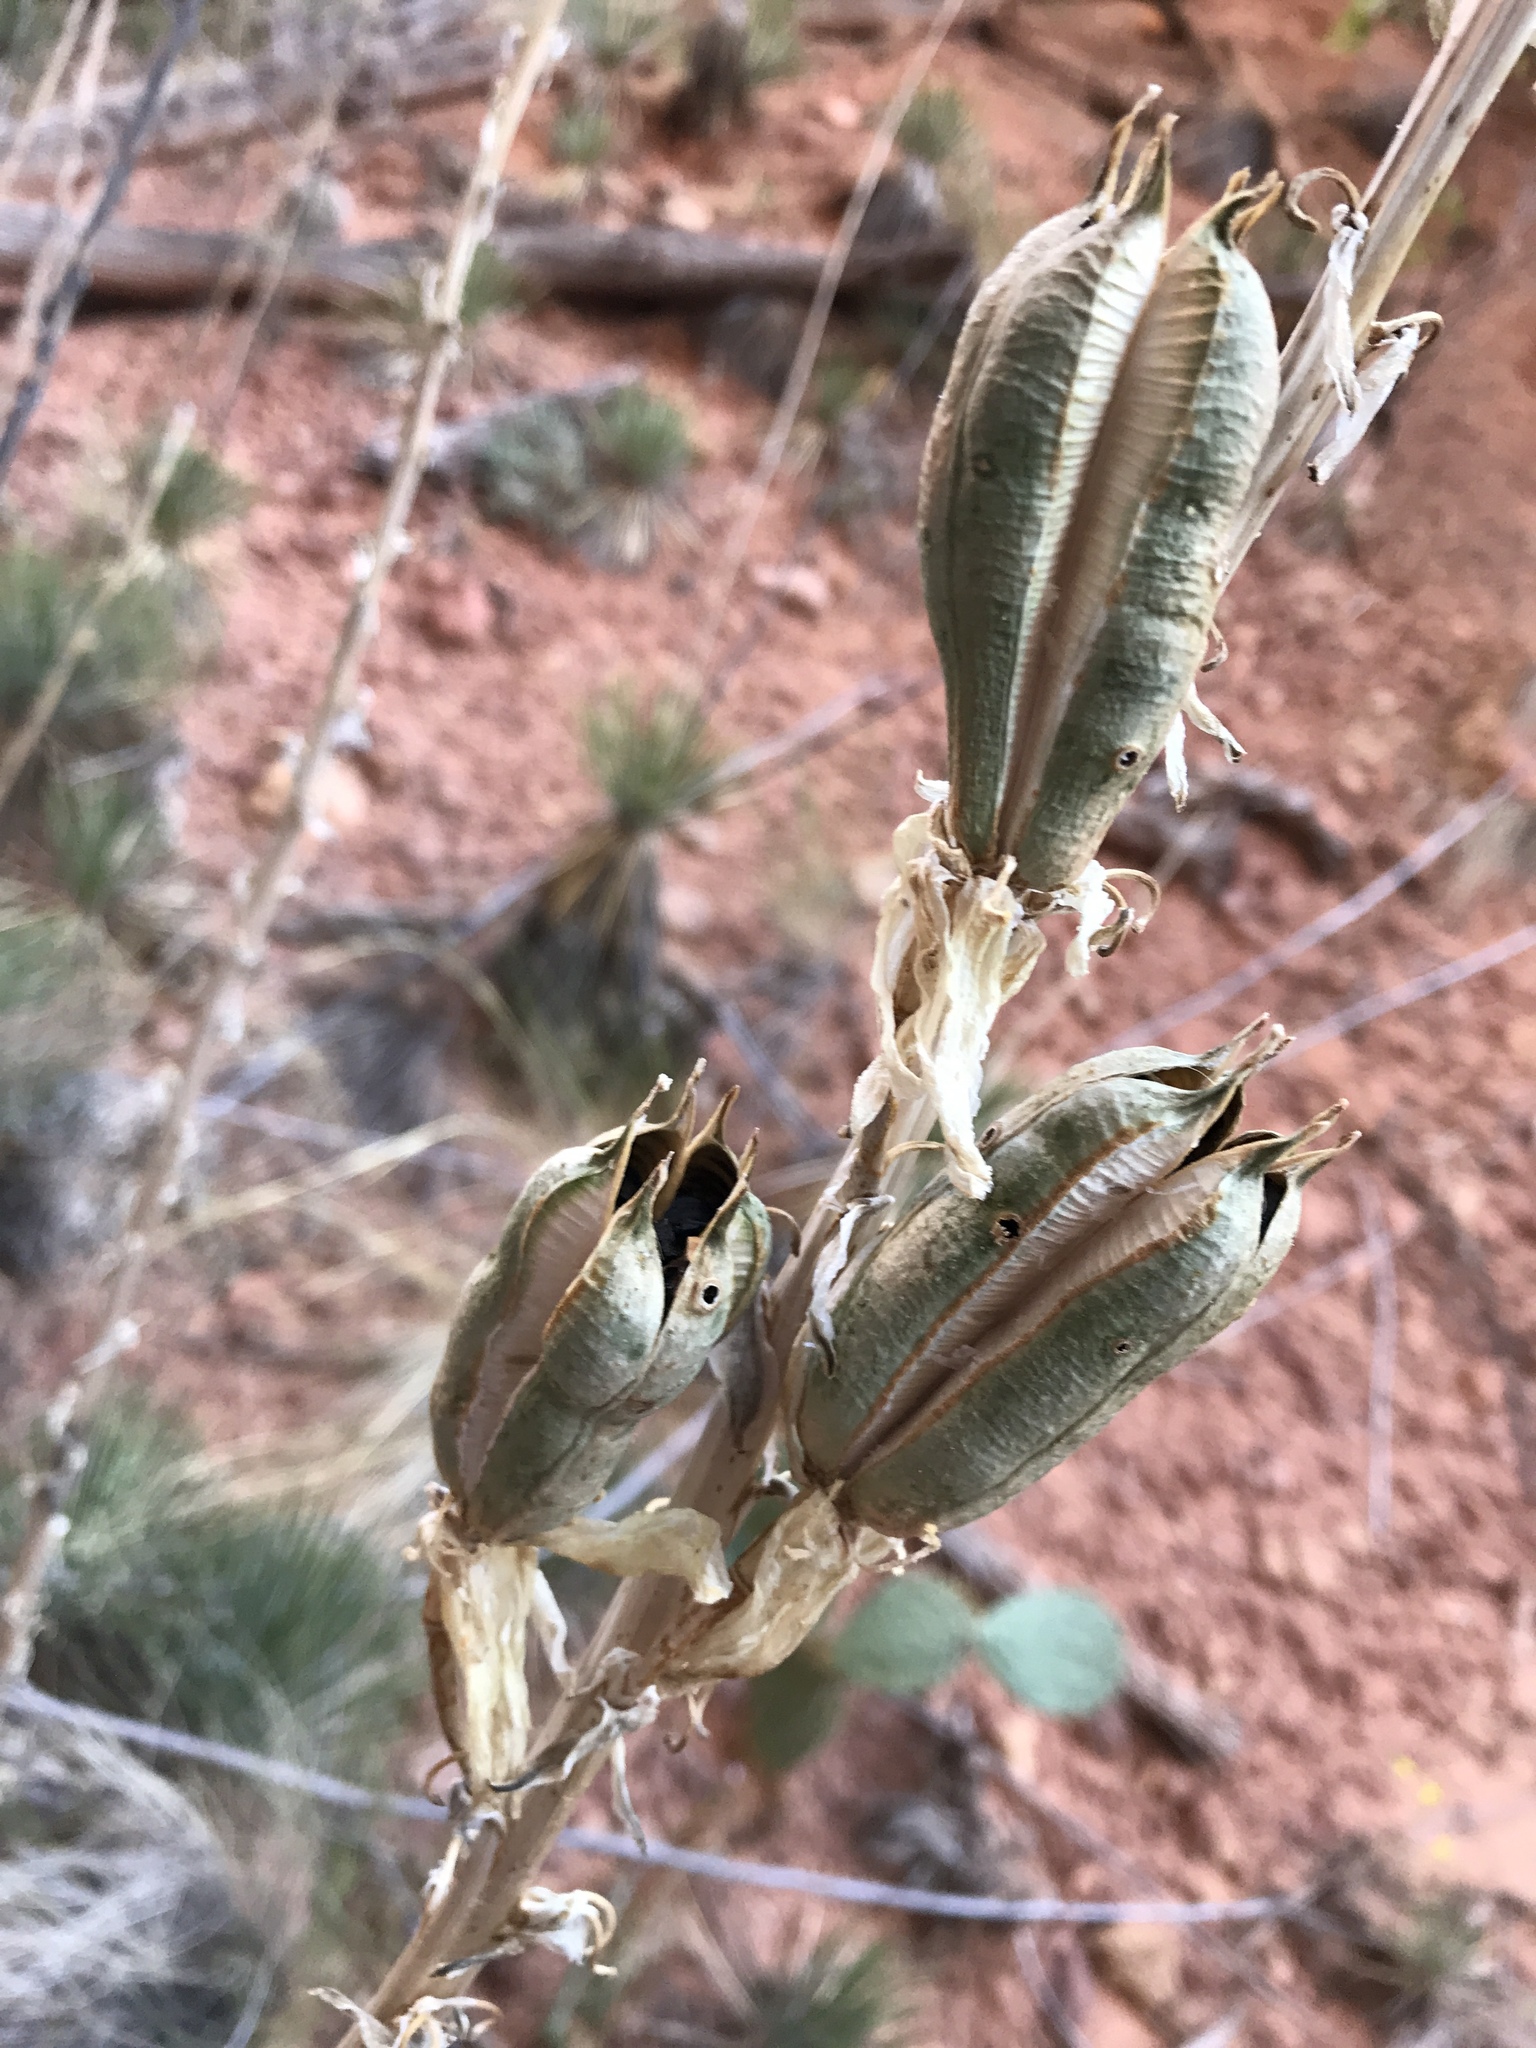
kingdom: Plantae
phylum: Tracheophyta
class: Liliopsida
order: Asparagales
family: Asparagaceae
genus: Yucca
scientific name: Yucca angustissima
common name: Narrowleaf yucca
